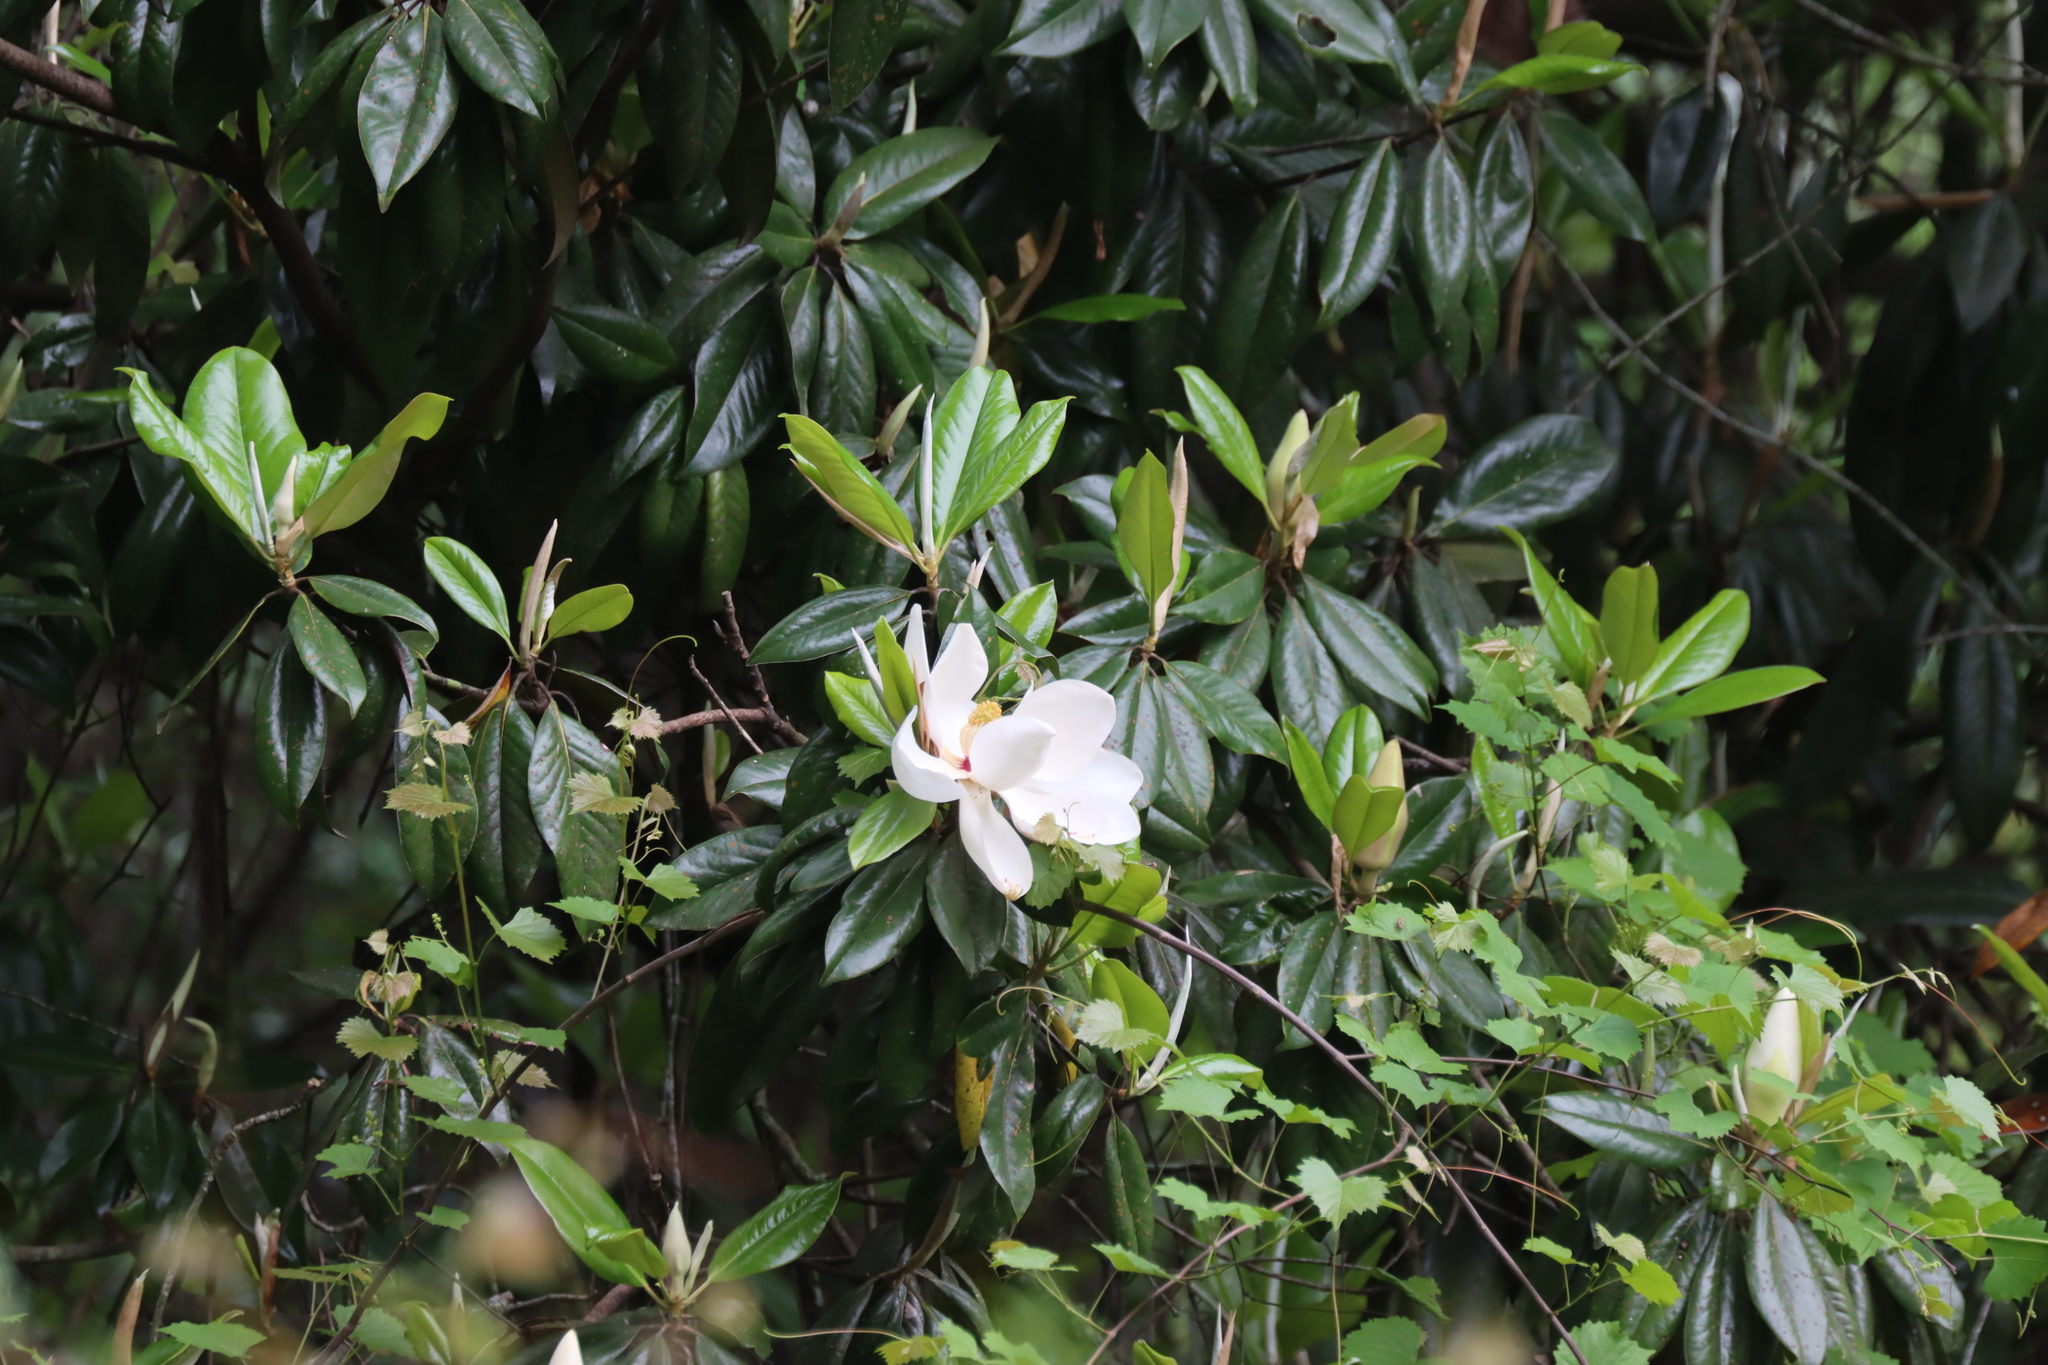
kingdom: Plantae
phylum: Tracheophyta
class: Magnoliopsida
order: Magnoliales
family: Magnoliaceae
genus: Magnolia
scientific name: Magnolia grandiflora
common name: Southern magnolia
